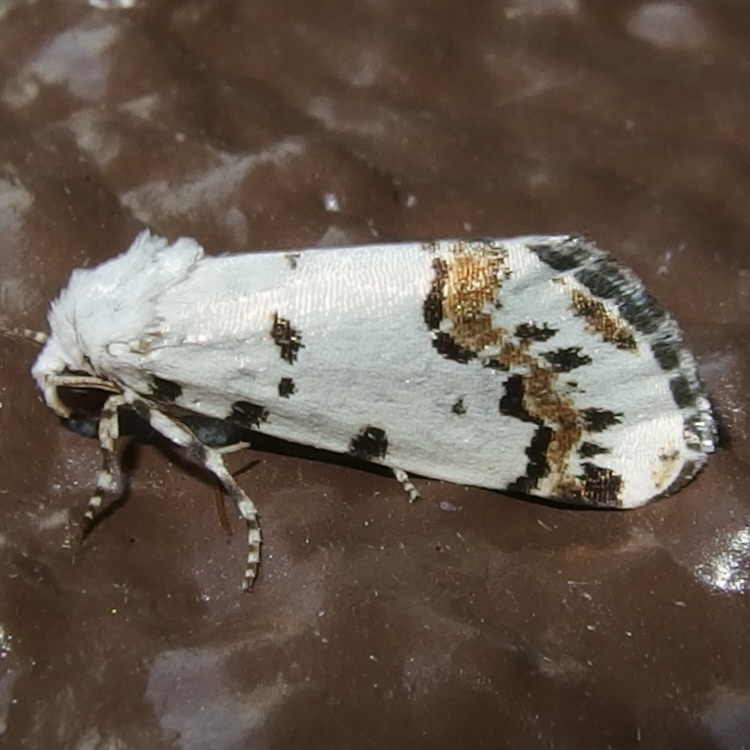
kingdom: Animalia
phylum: Arthropoda
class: Insecta
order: Lepidoptera
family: Noctuidae
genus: Grotella
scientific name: Grotella tricolor
